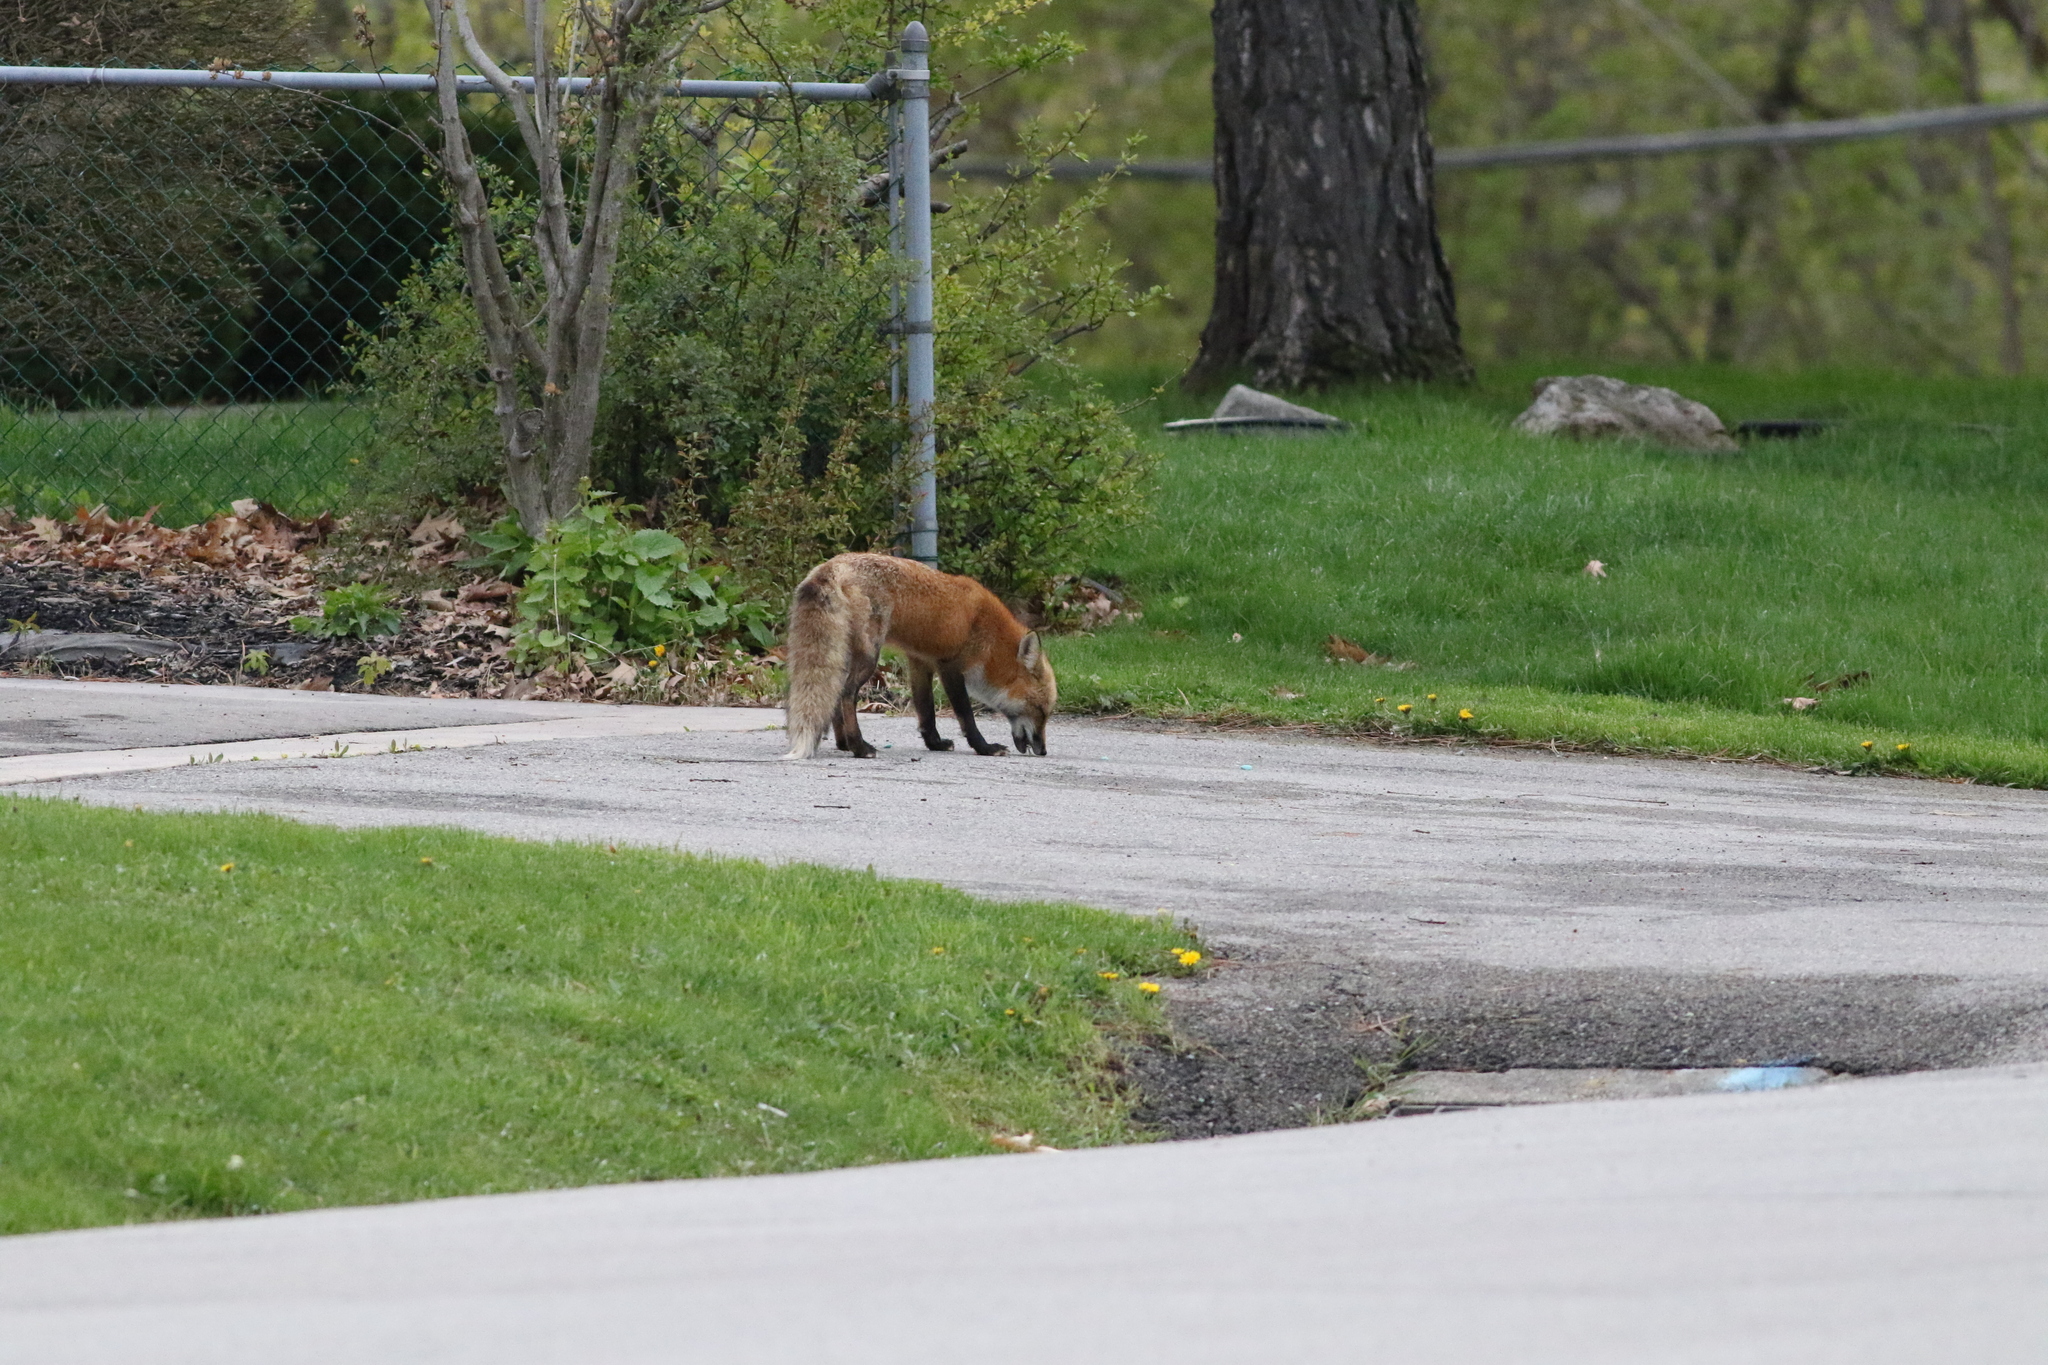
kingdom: Animalia
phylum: Chordata
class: Mammalia
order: Carnivora
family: Canidae
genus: Vulpes
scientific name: Vulpes vulpes
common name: Red fox
